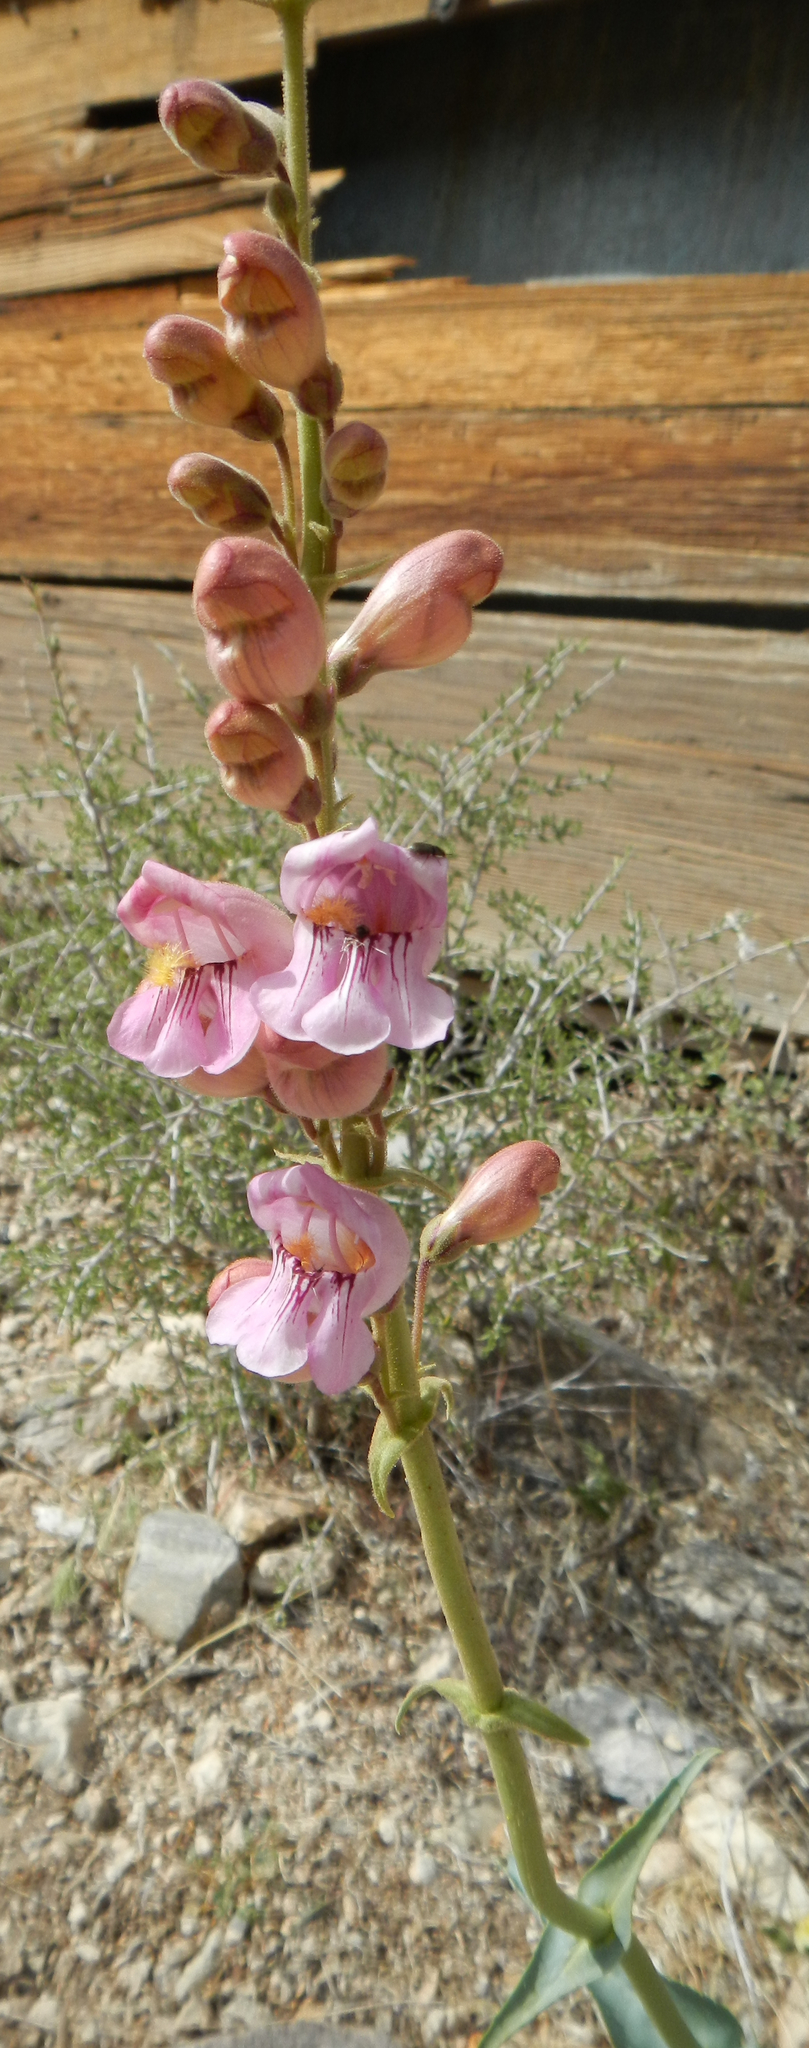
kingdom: Plantae
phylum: Tracheophyta
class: Magnoliopsida
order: Lamiales
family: Plantaginaceae
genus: Penstemon
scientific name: Penstemon palmeri
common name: Palmer penstemon
